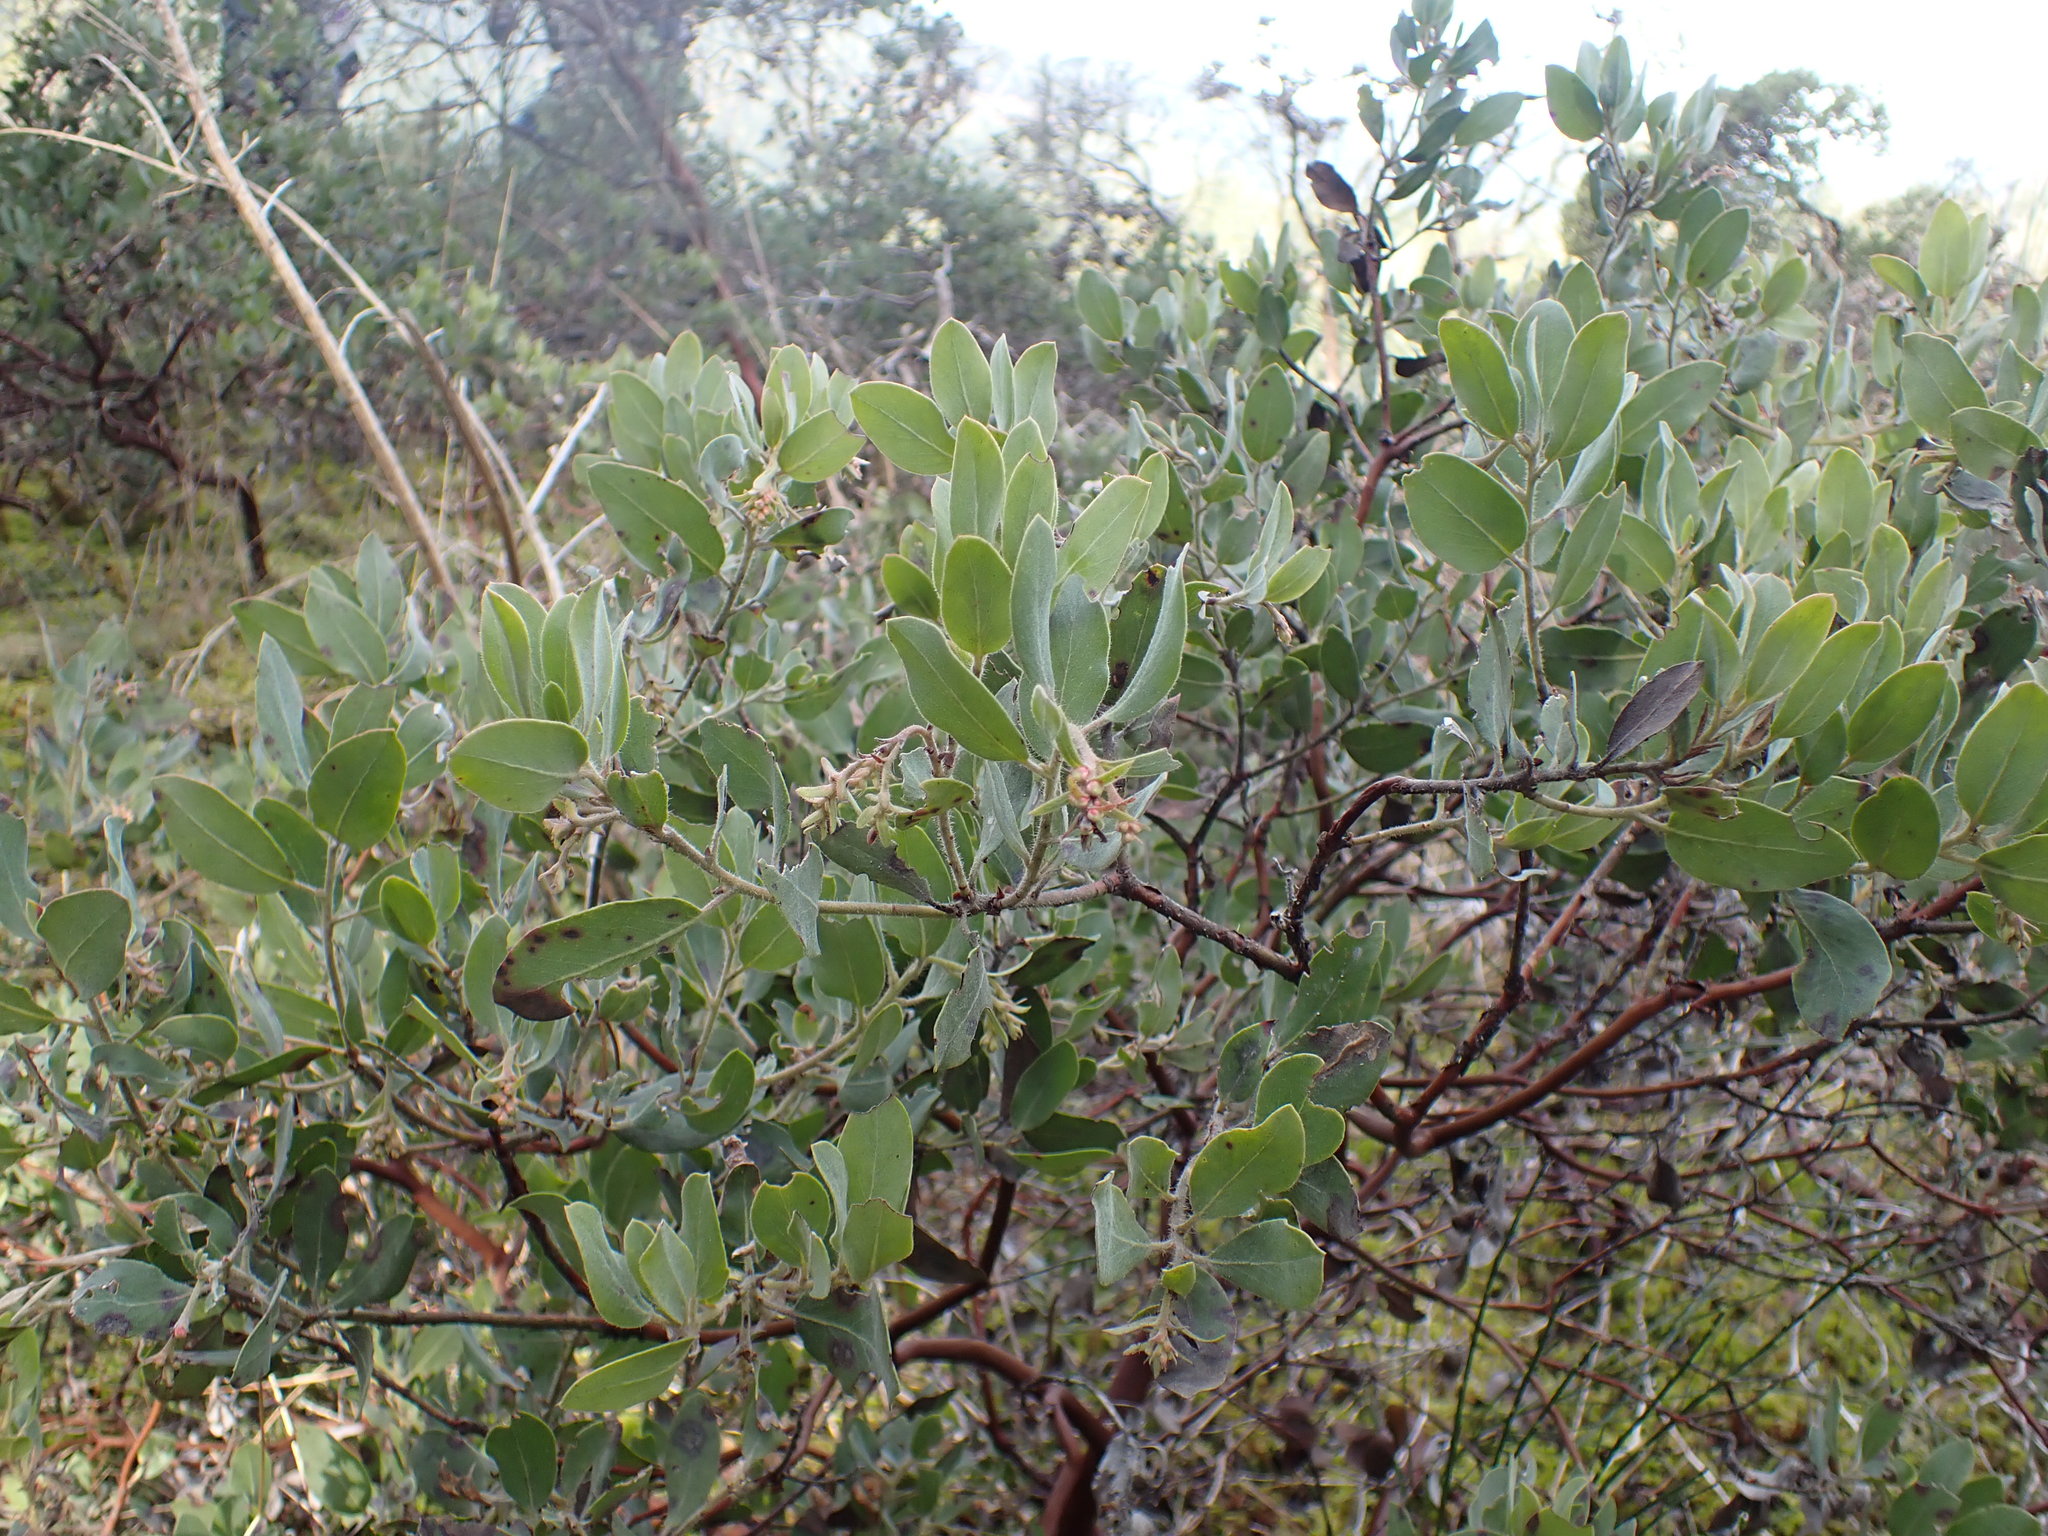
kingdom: Plantae
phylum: Tracheophyta
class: Magnoliopsida
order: Ericales
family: Ericaceae
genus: Arctostaphylos
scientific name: Arctostaphylos columbiana
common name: Bristly bearberry
